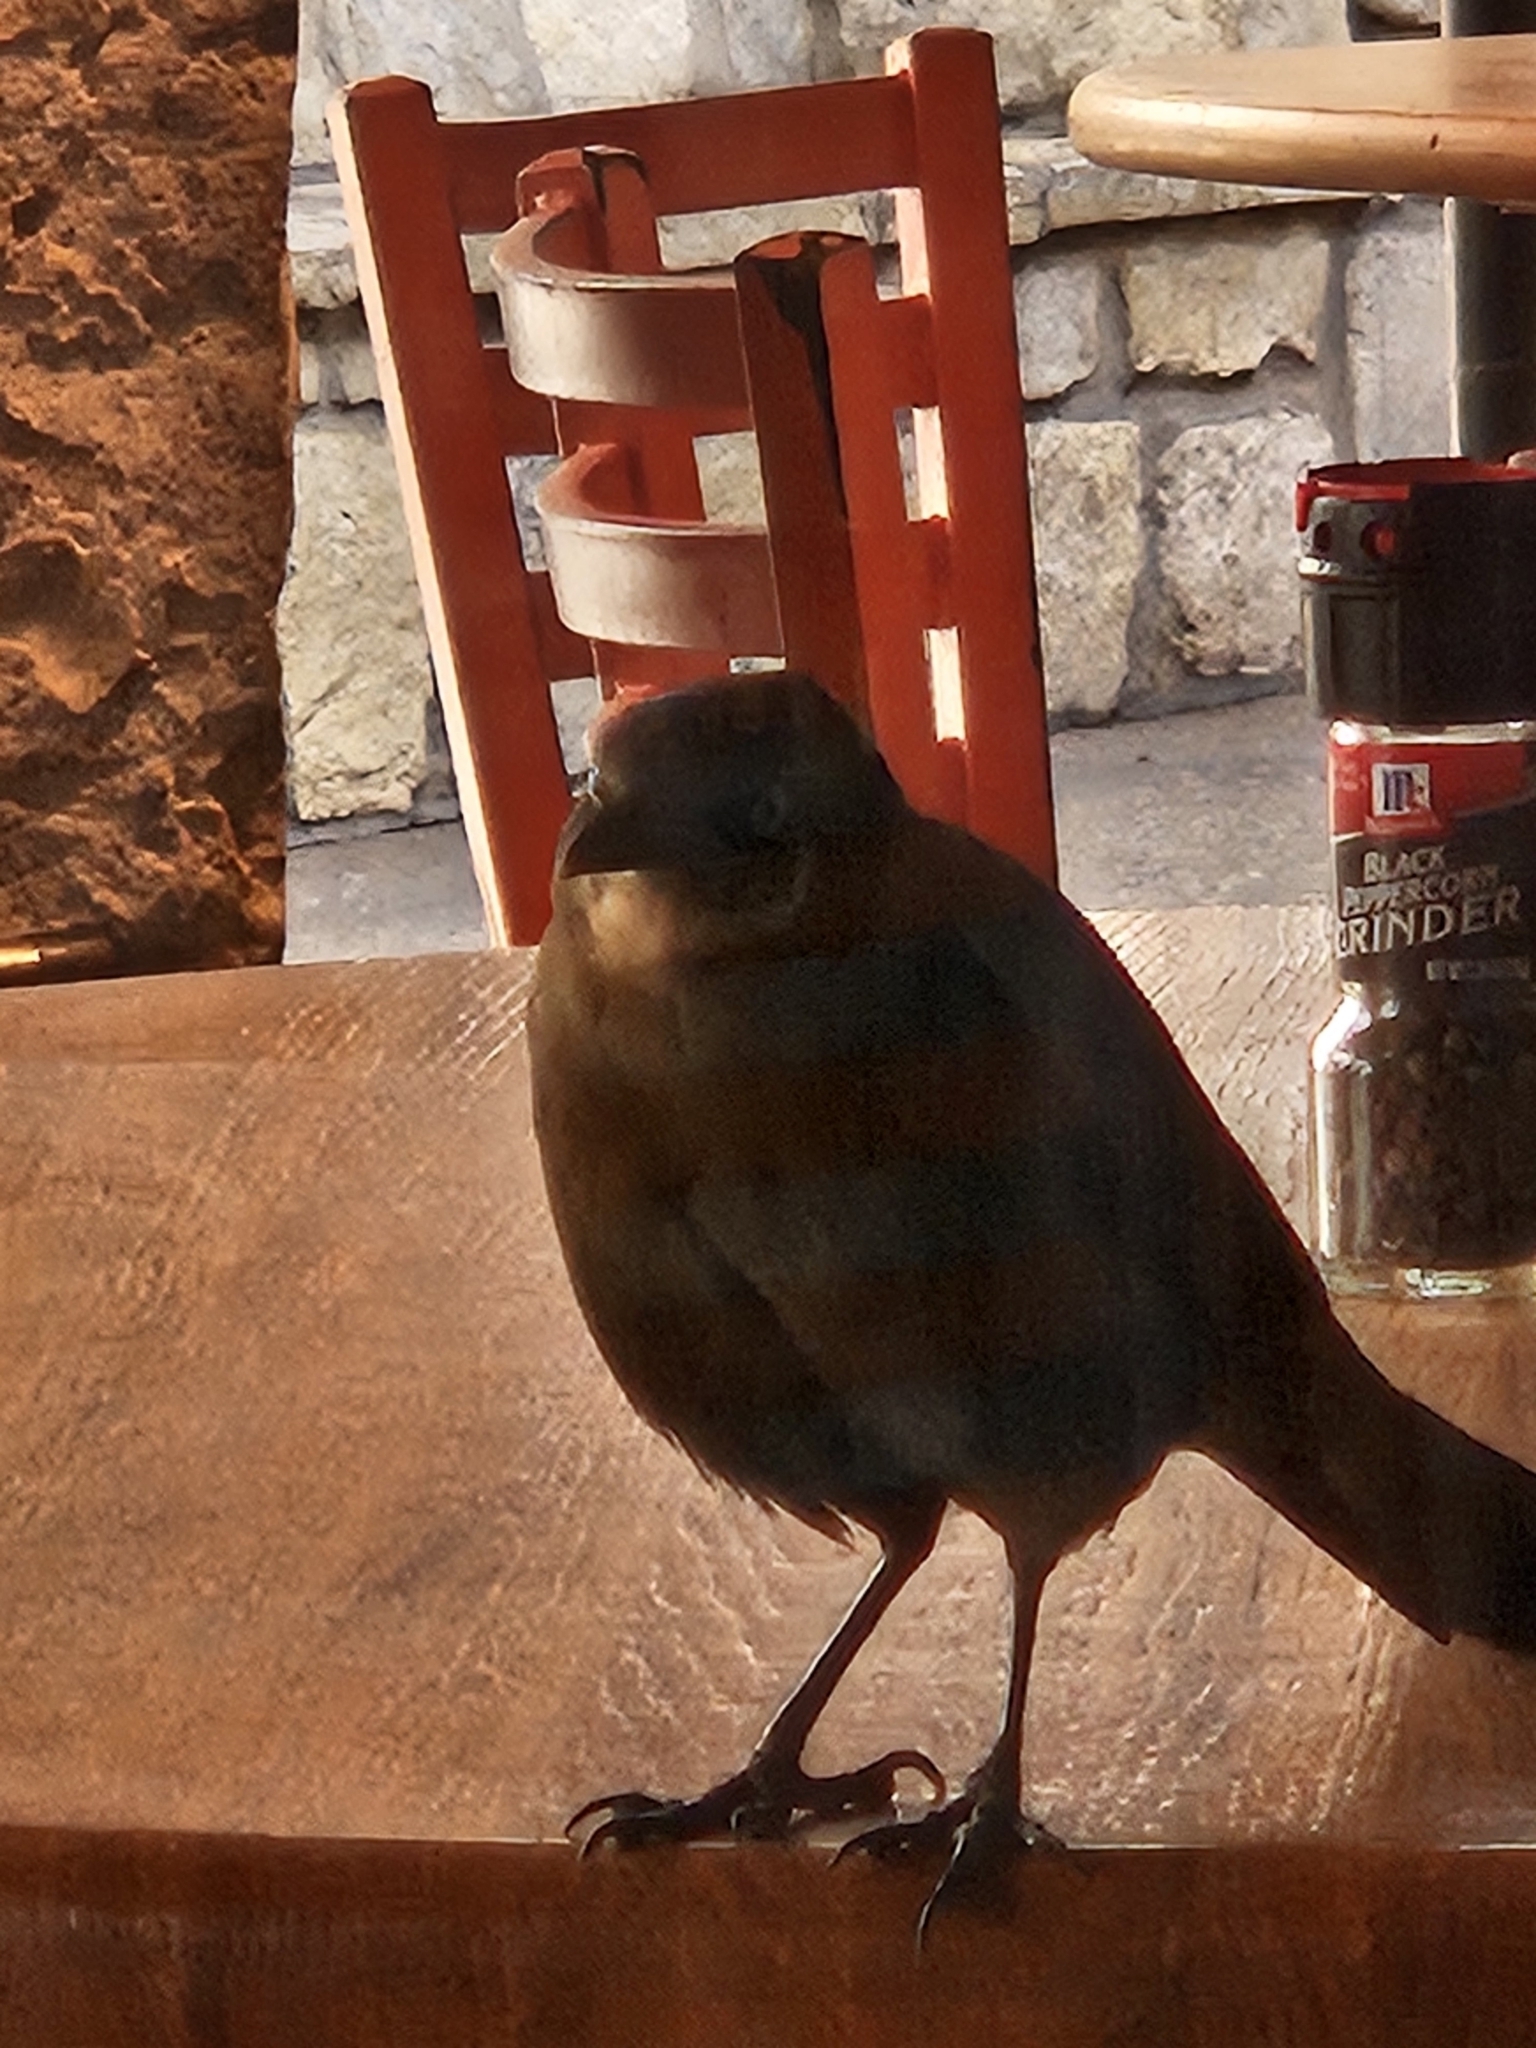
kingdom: Animalia
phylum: Chordata
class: Aves
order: Passeriformes
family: Icteridae
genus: Quiscalus
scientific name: Quiscalus mexicanus
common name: Great-tailed grackle
